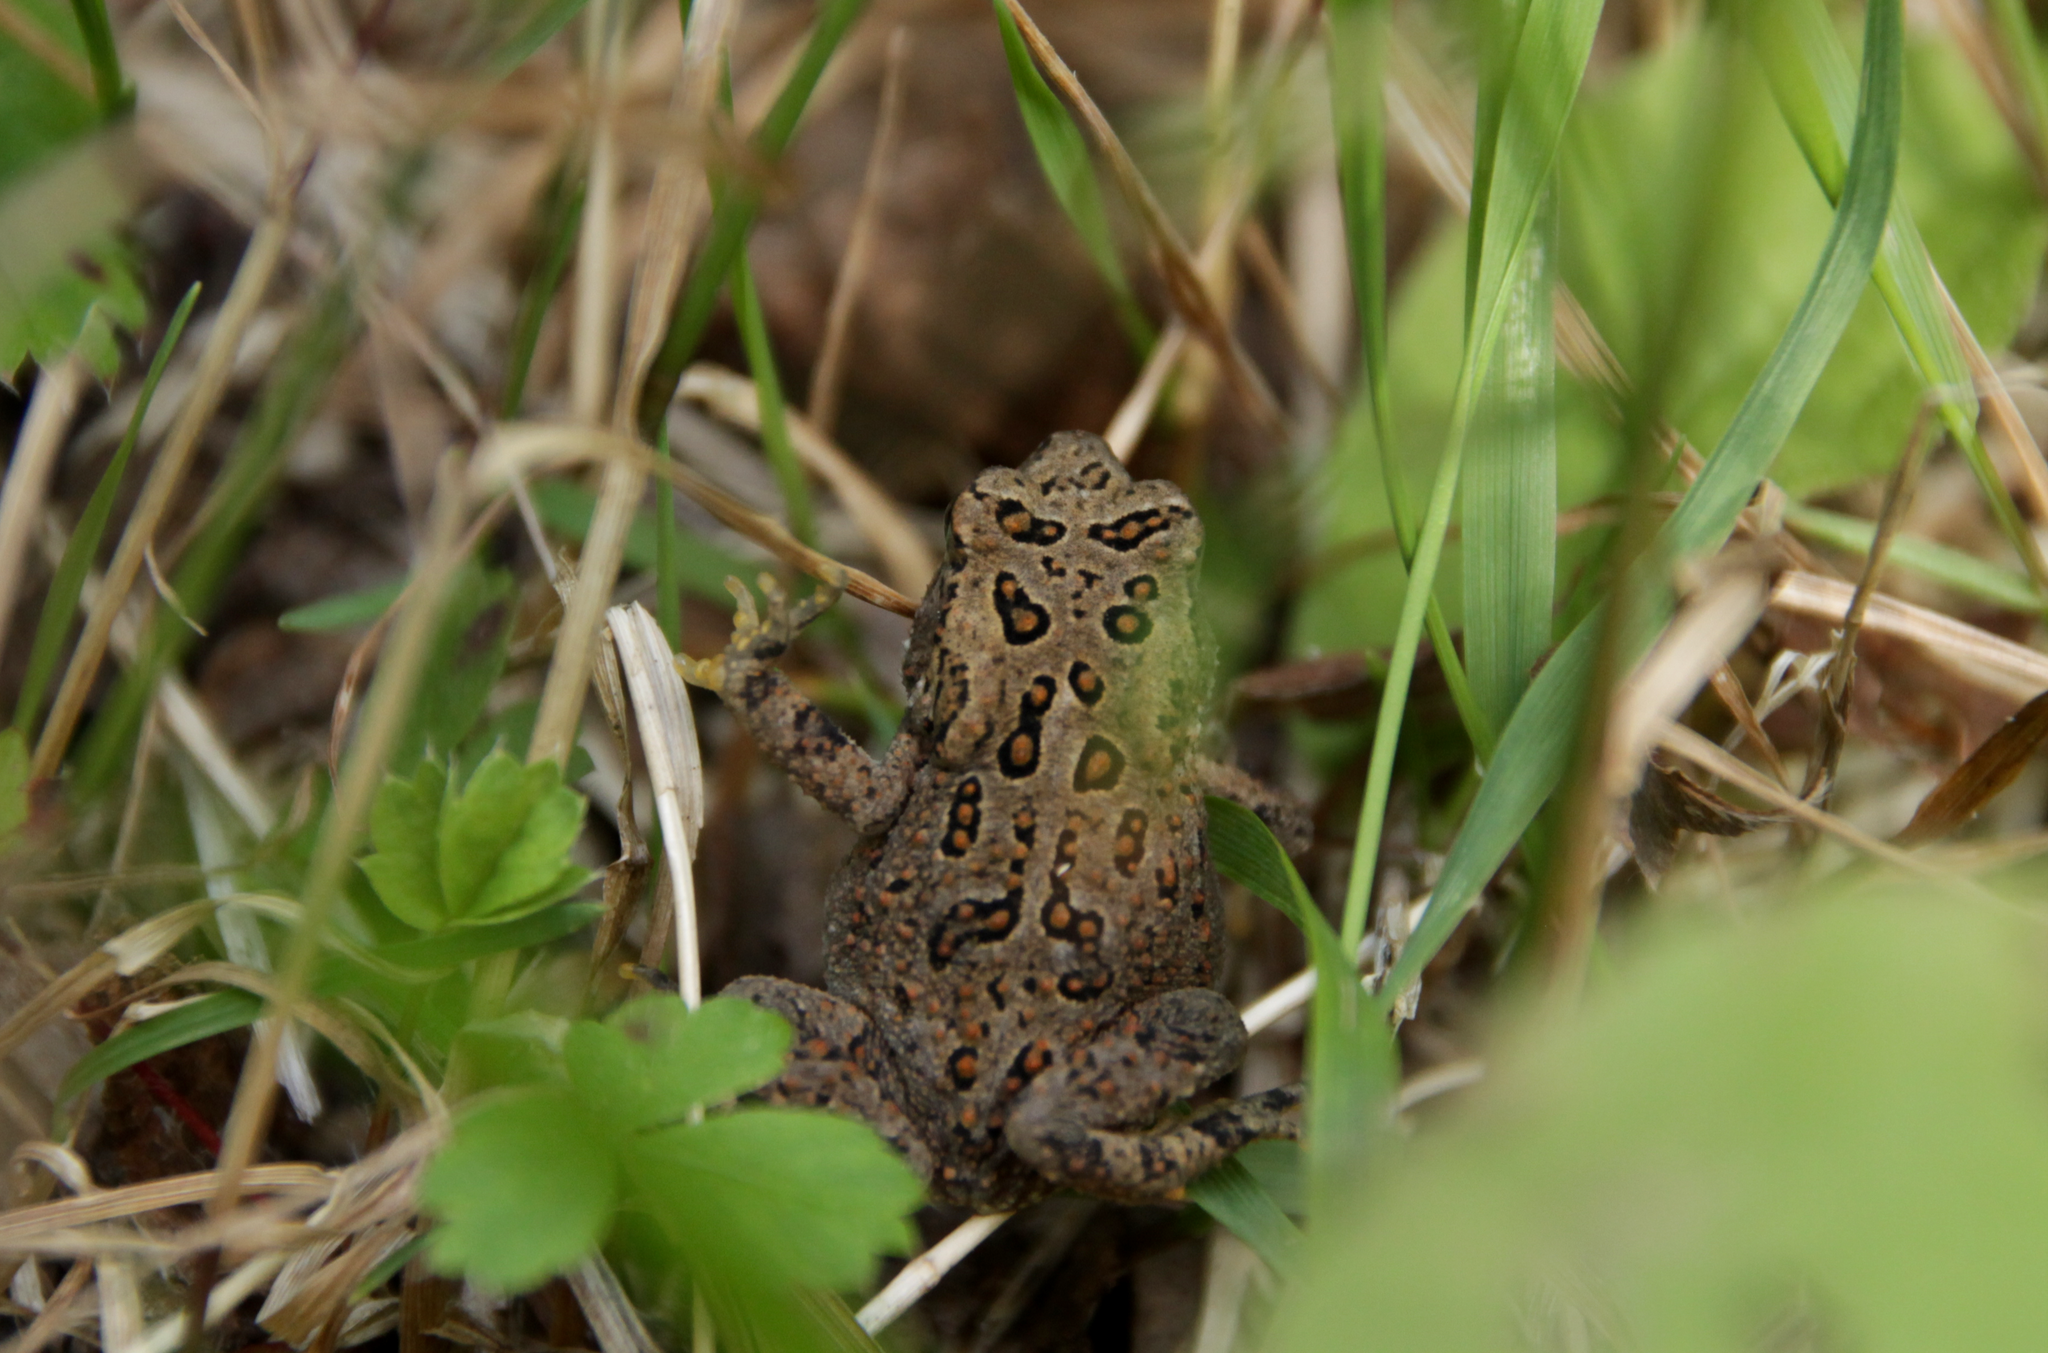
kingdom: Animalia
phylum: Chordata
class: Amphibia
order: Anura
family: Bufonidae
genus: Anaxyrus
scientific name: Anaxyrus americanus
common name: American toad
